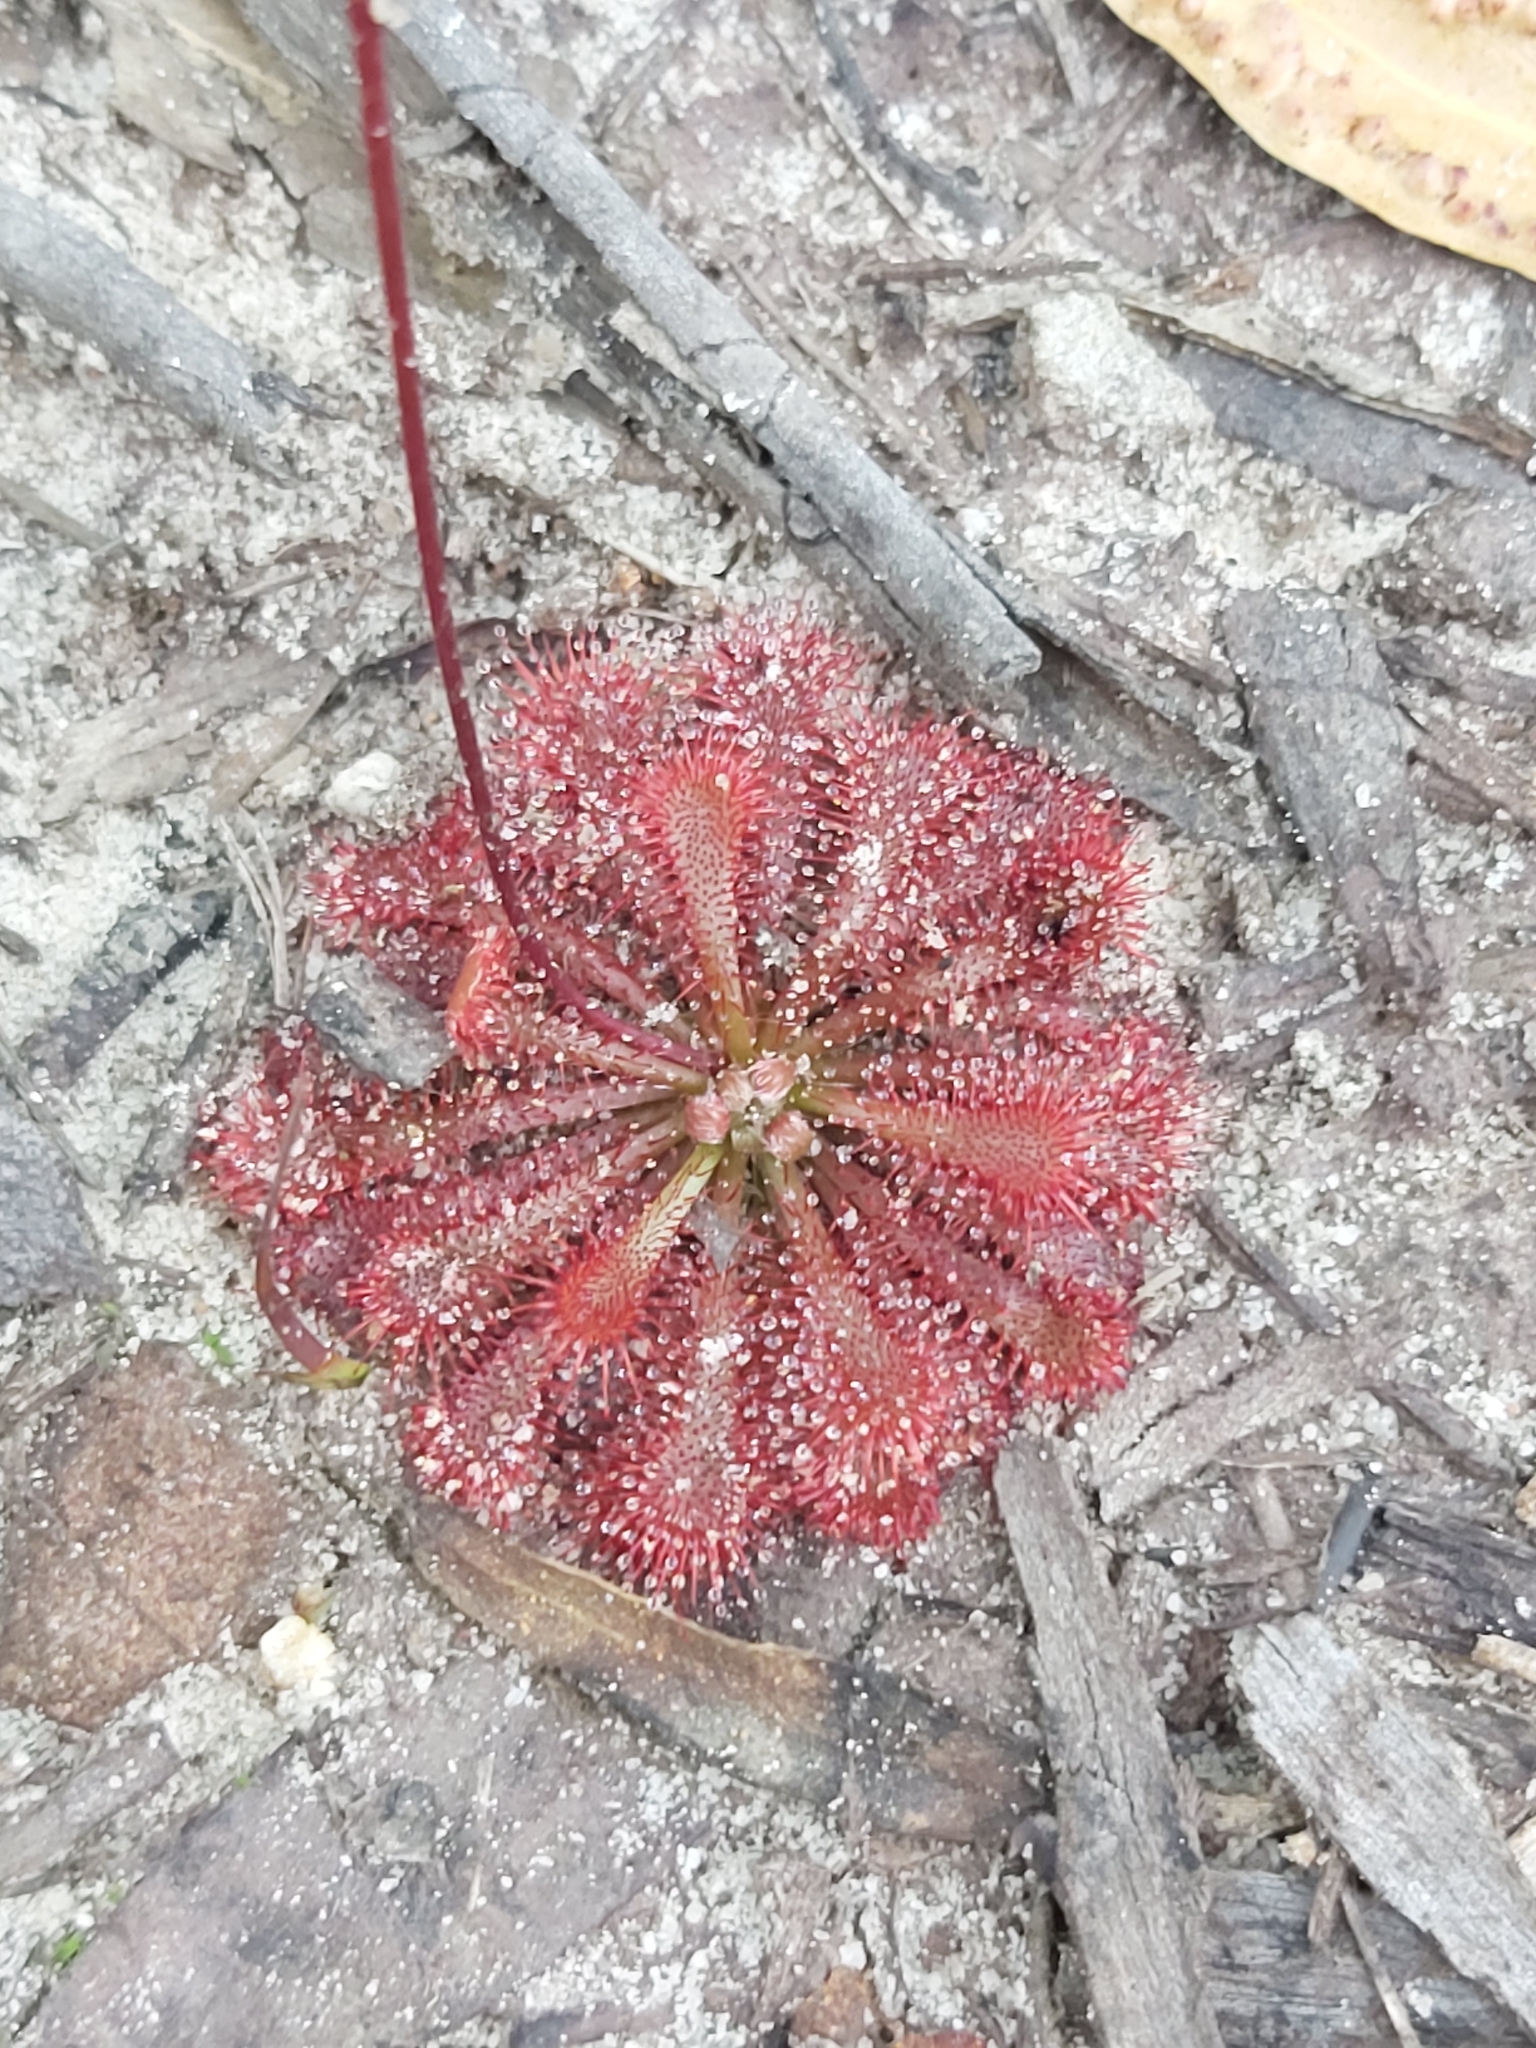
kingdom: Plantae
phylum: Tracheophyta
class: Magnoliopsida
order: Caryophyllales
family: Droseraceae
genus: Drosera
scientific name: Drosera spatulata
